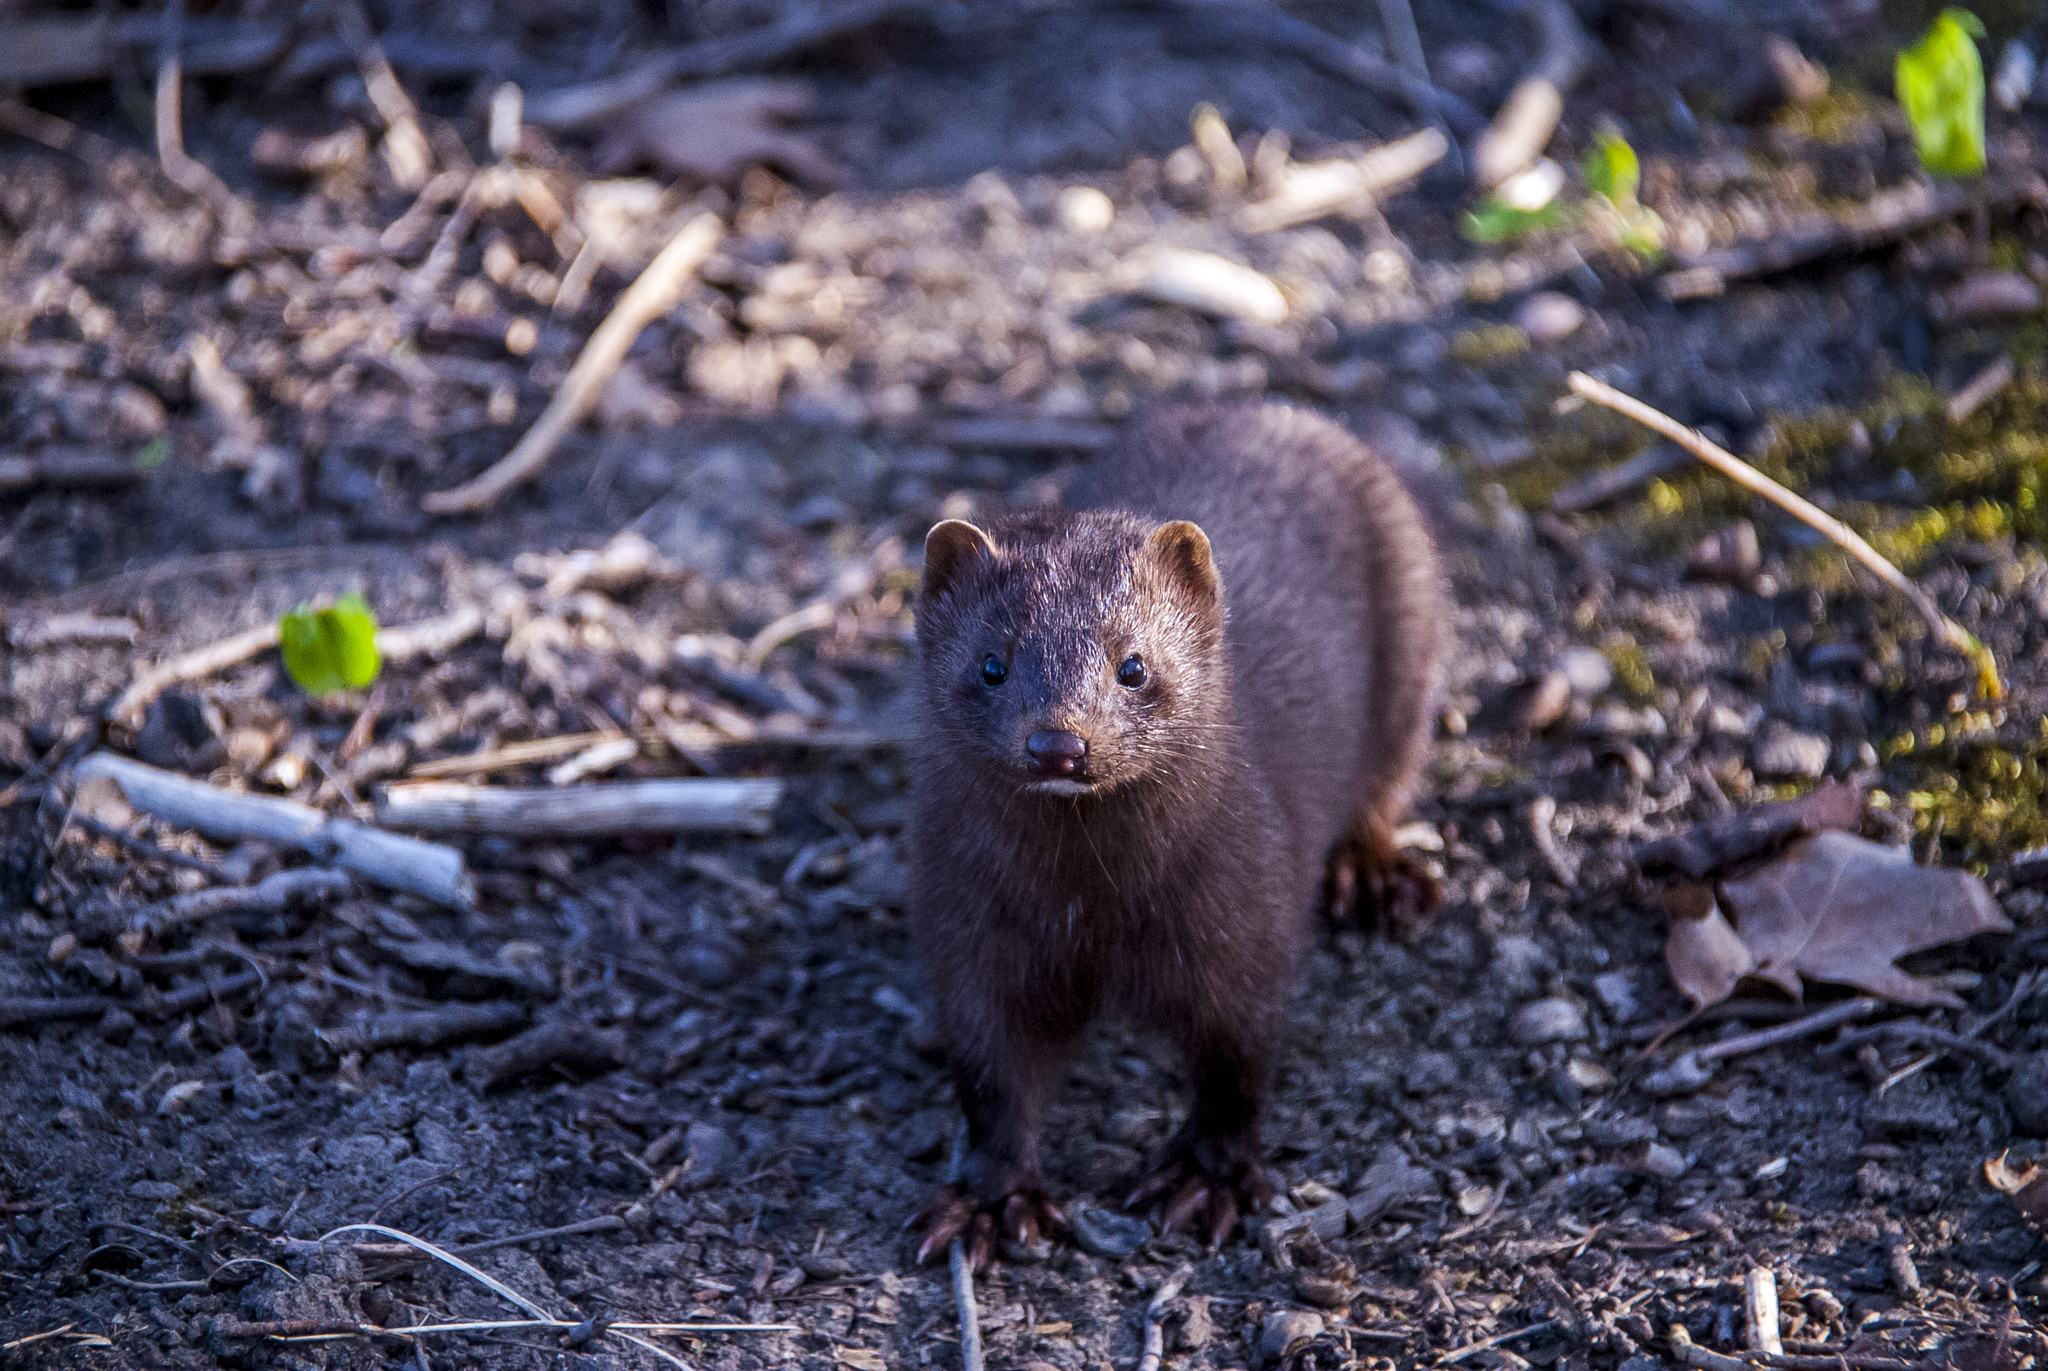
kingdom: Animalia
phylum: Chordata
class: Mammalia
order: Carnivora
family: Mustelidae
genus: Mustela
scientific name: Mustela
